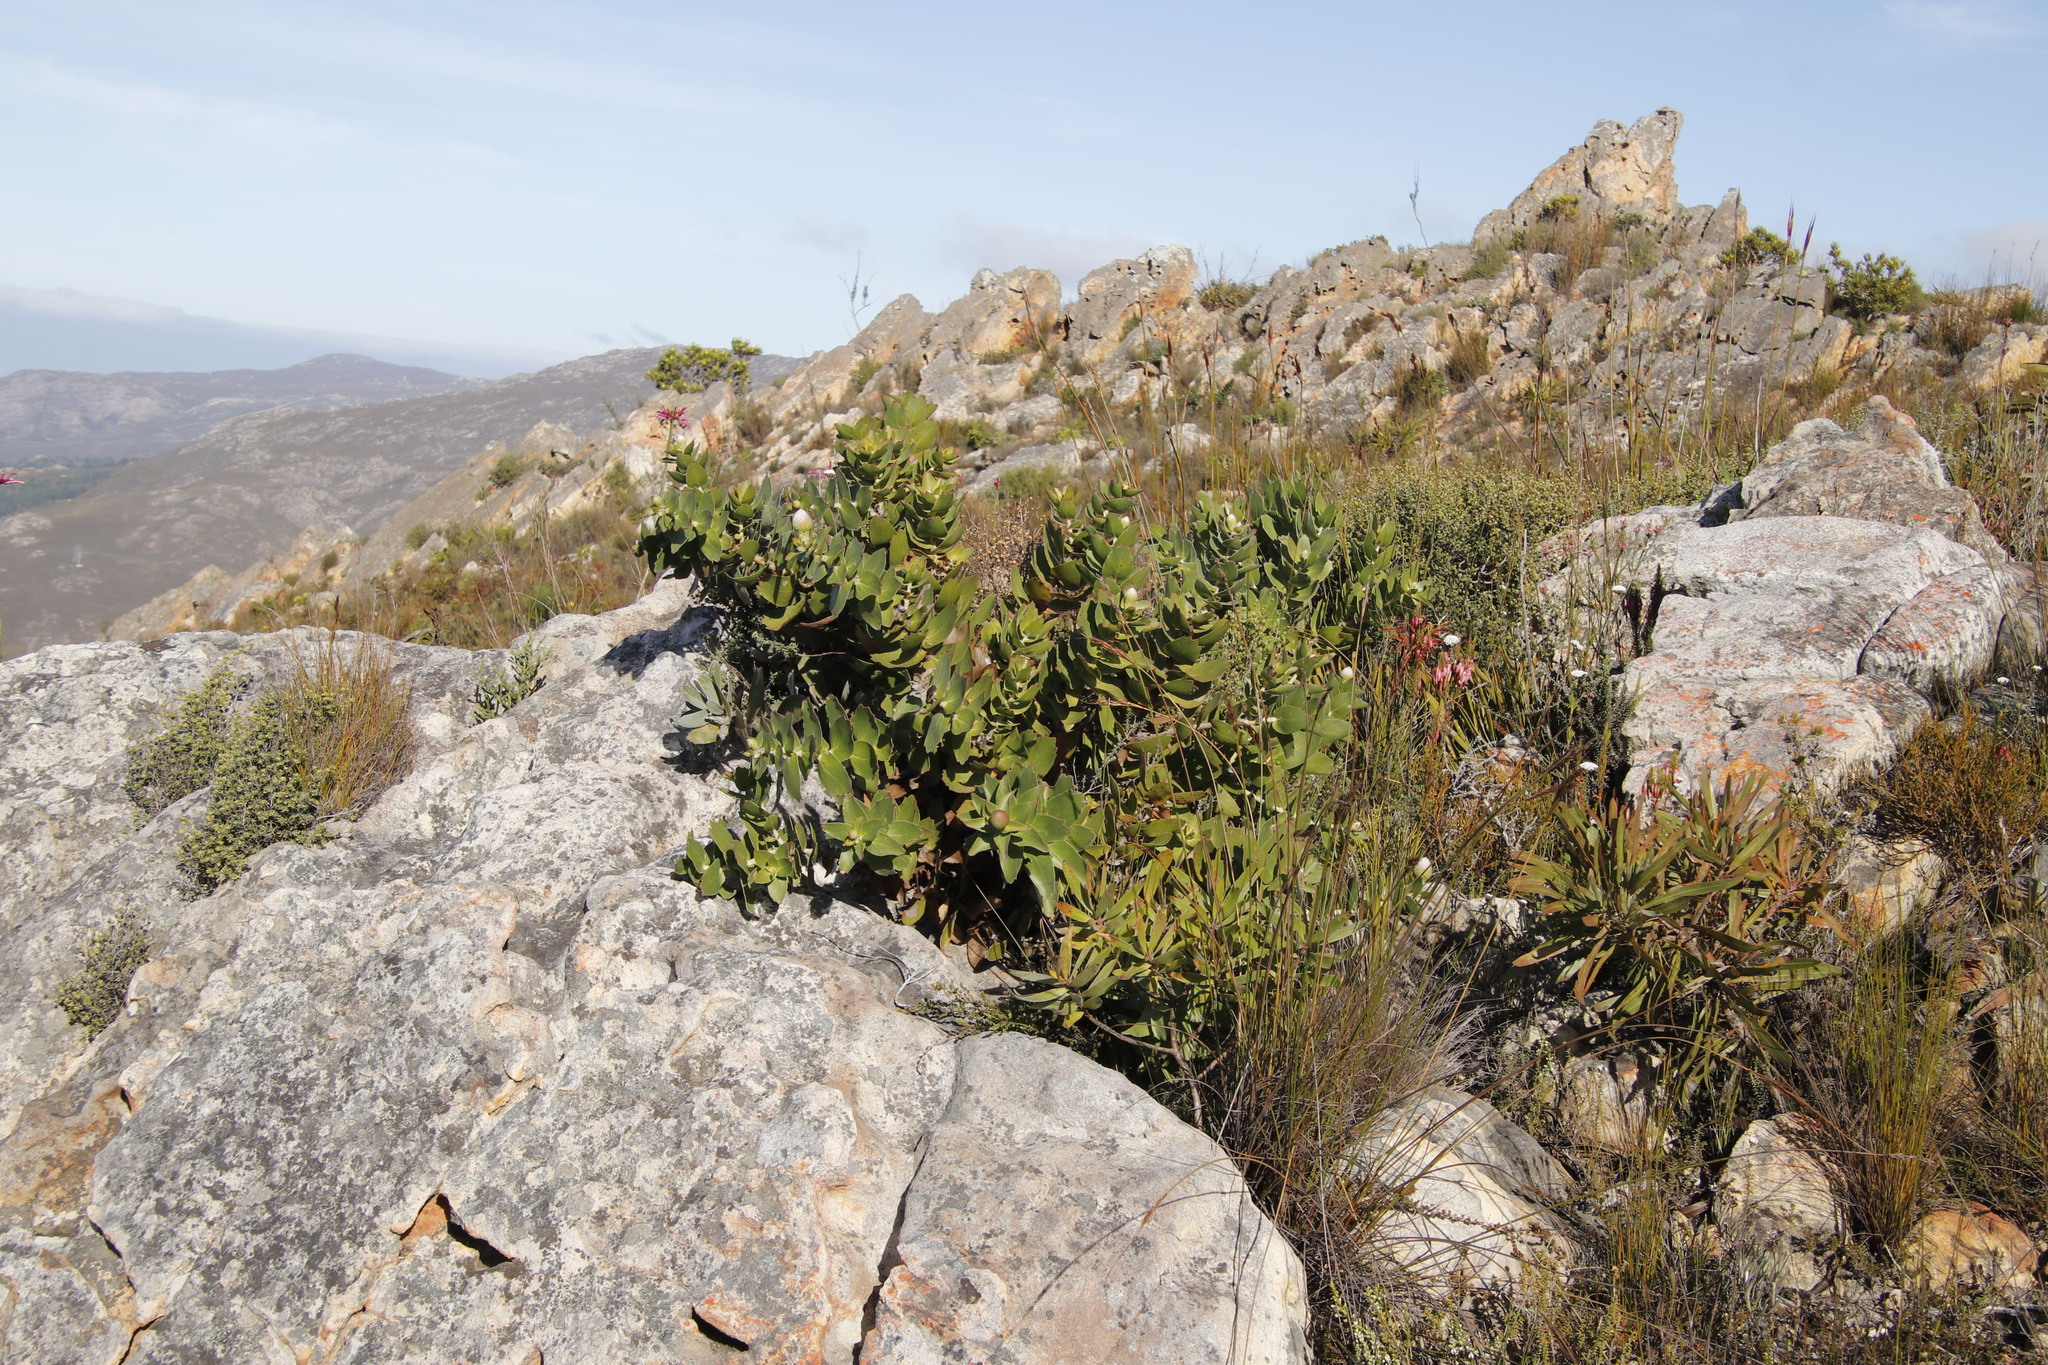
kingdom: Plantae
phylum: Tracheophyta
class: Magnoliopsida
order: Proteales
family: Proteaceae
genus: Leucospermum
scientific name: Leucospermum cordifolium
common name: Red pincushion-protea
